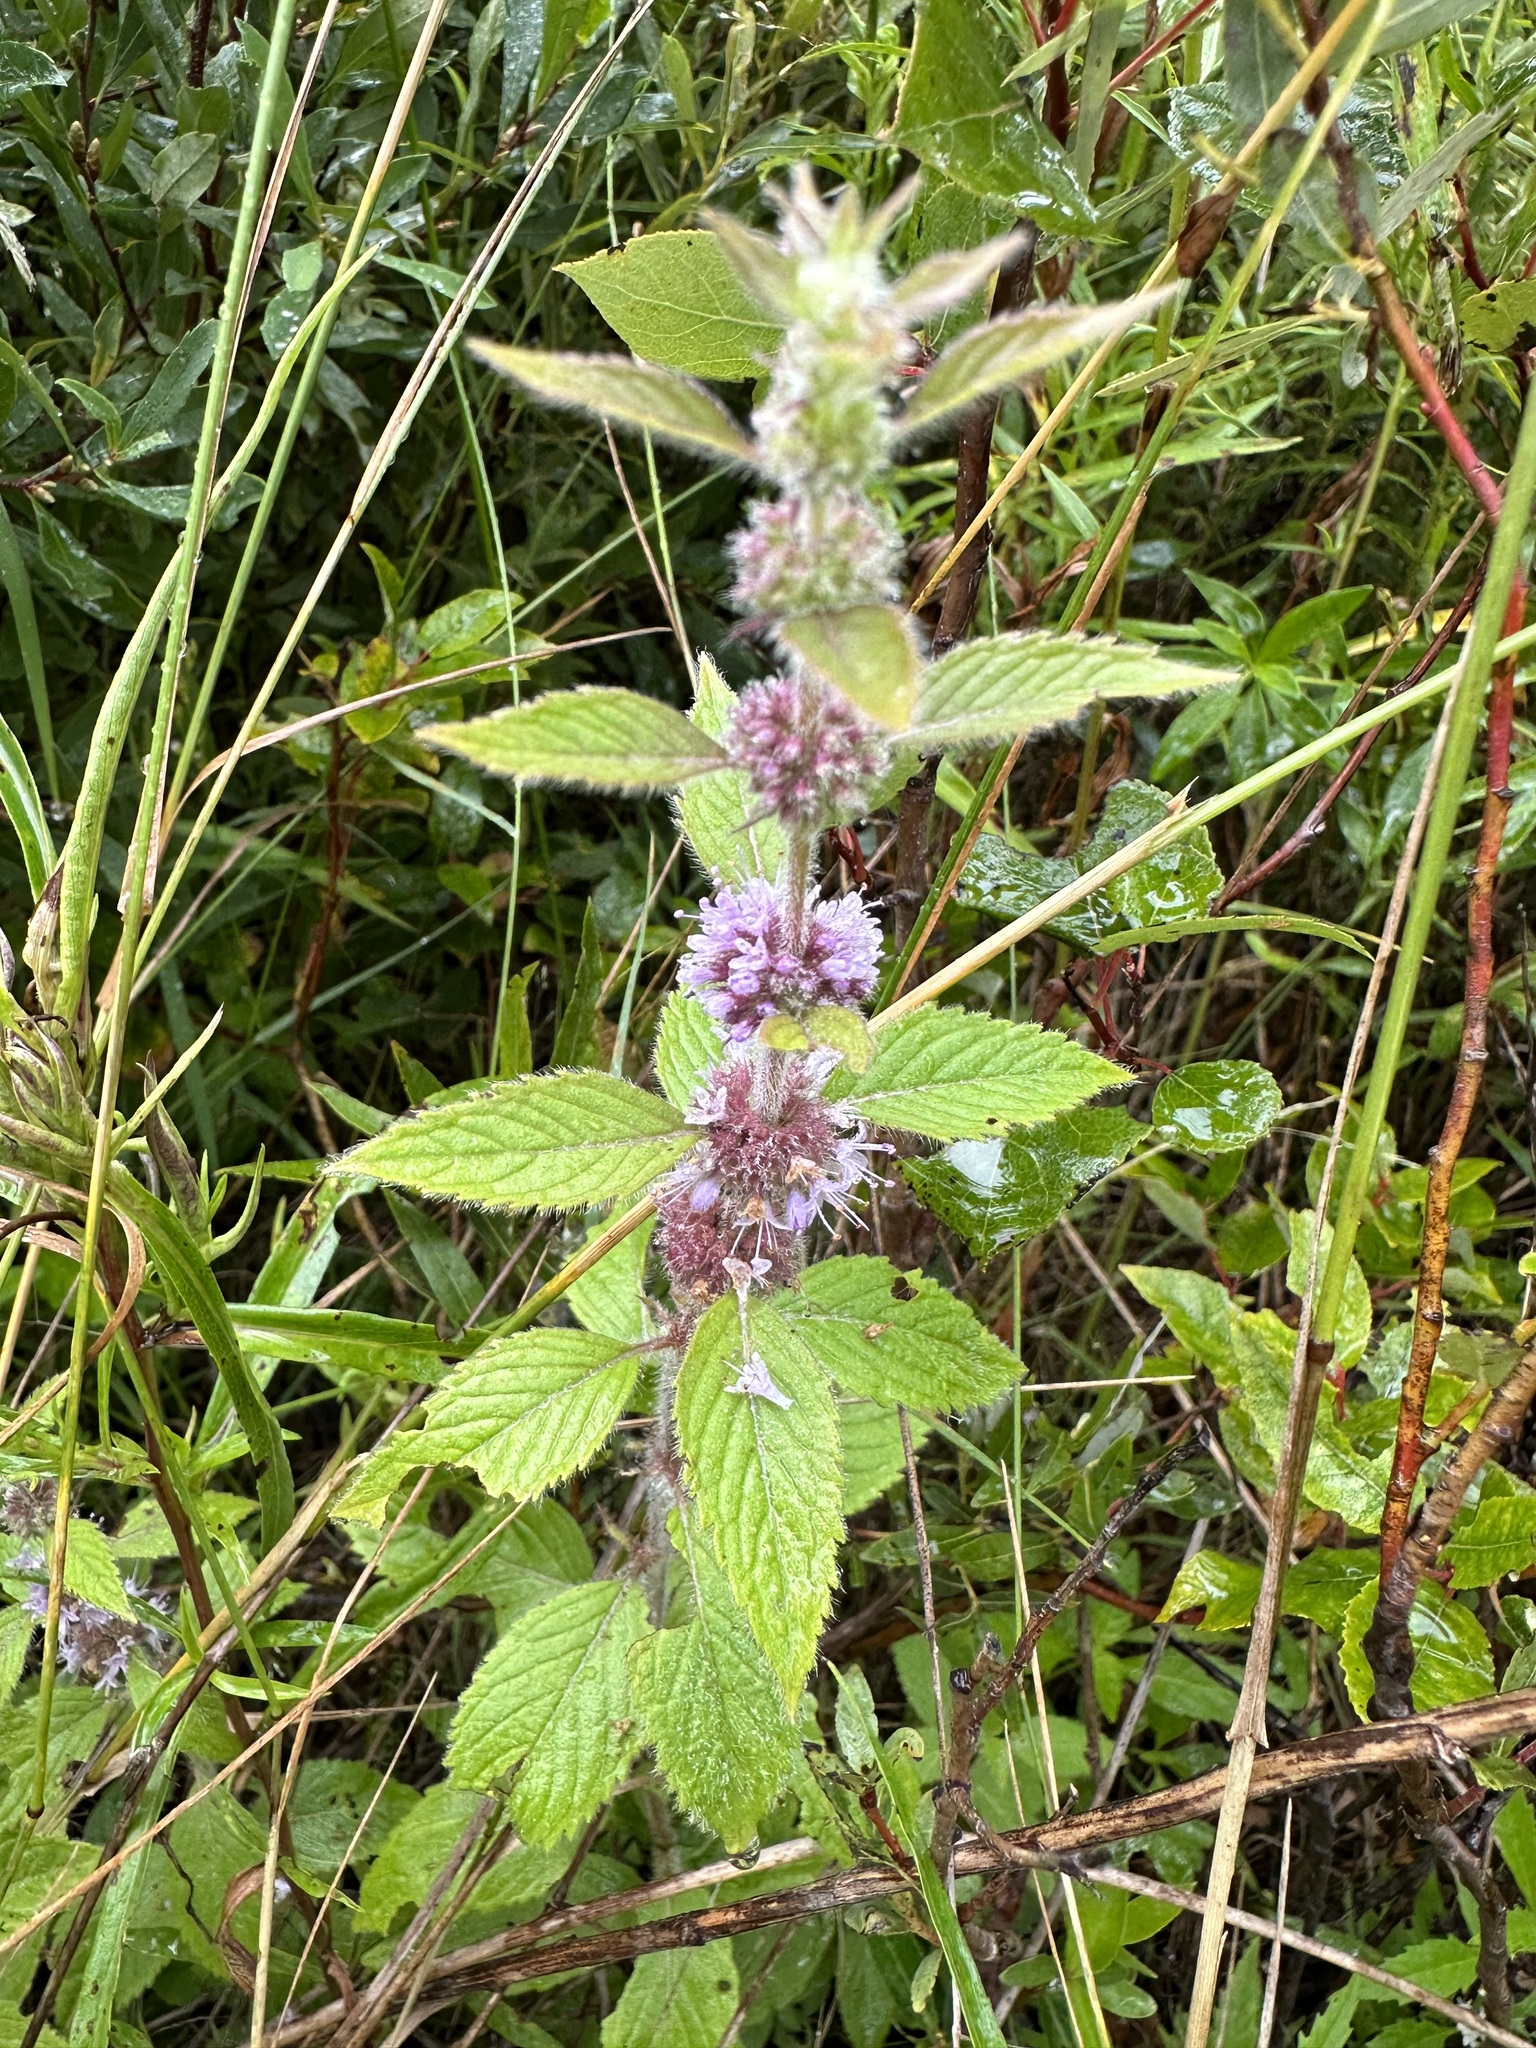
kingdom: Plantae
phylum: Tracheophyta
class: Magnoliopsida
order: Lamiales
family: Lamiaceae
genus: Mentha
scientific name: Mentha canadensis
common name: American corn mint
